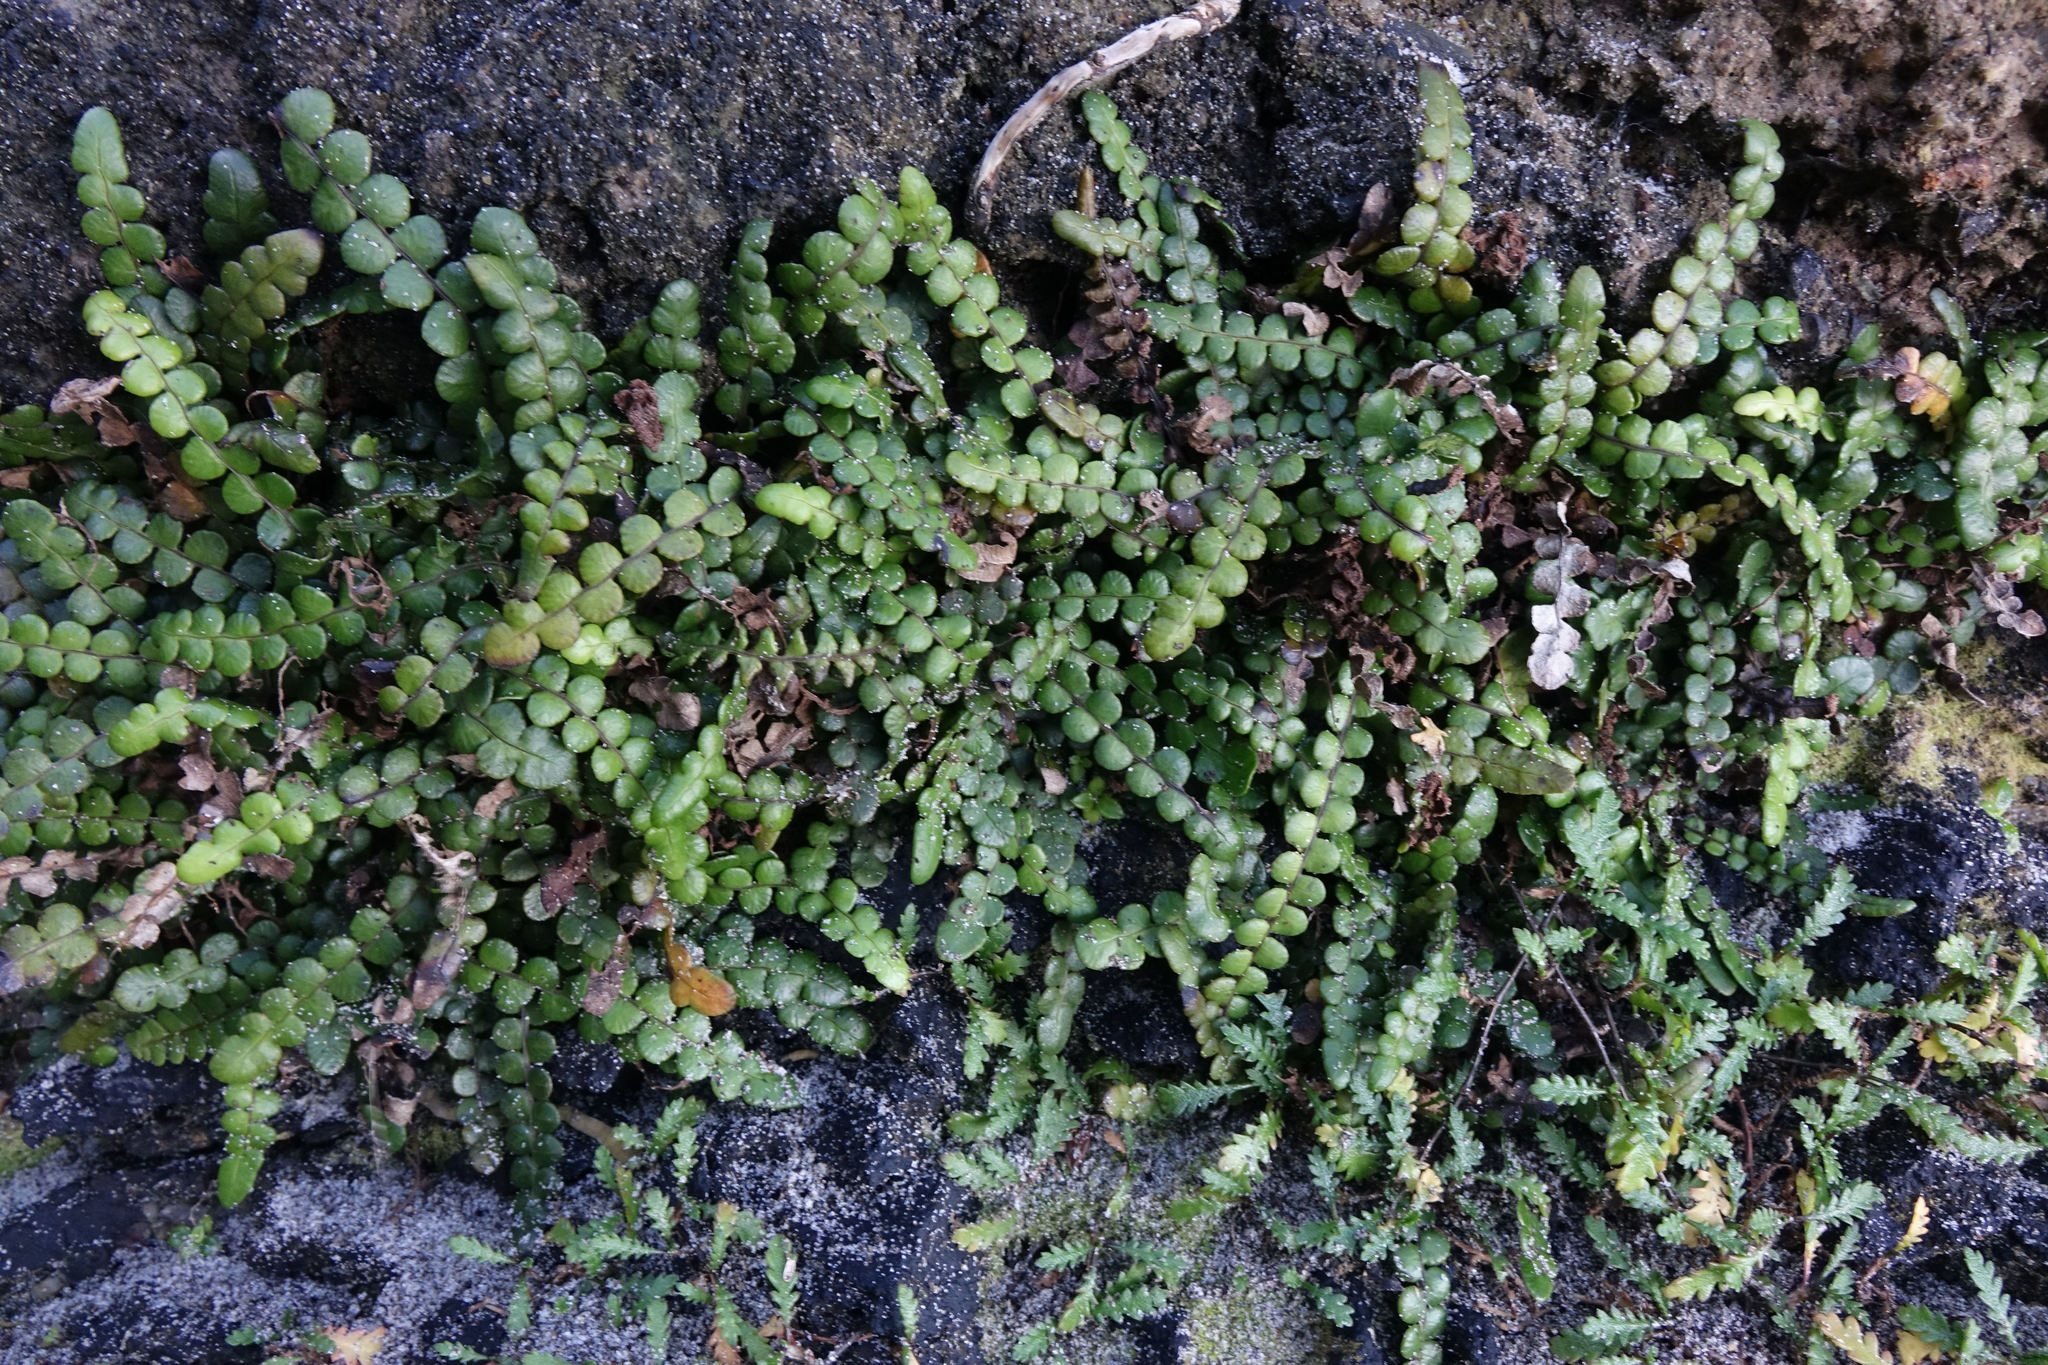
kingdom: Plantae
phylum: Tracheophyta
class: Polypodiopsida
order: Polypodiales
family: Blechnaceae
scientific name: Blechnaceae
